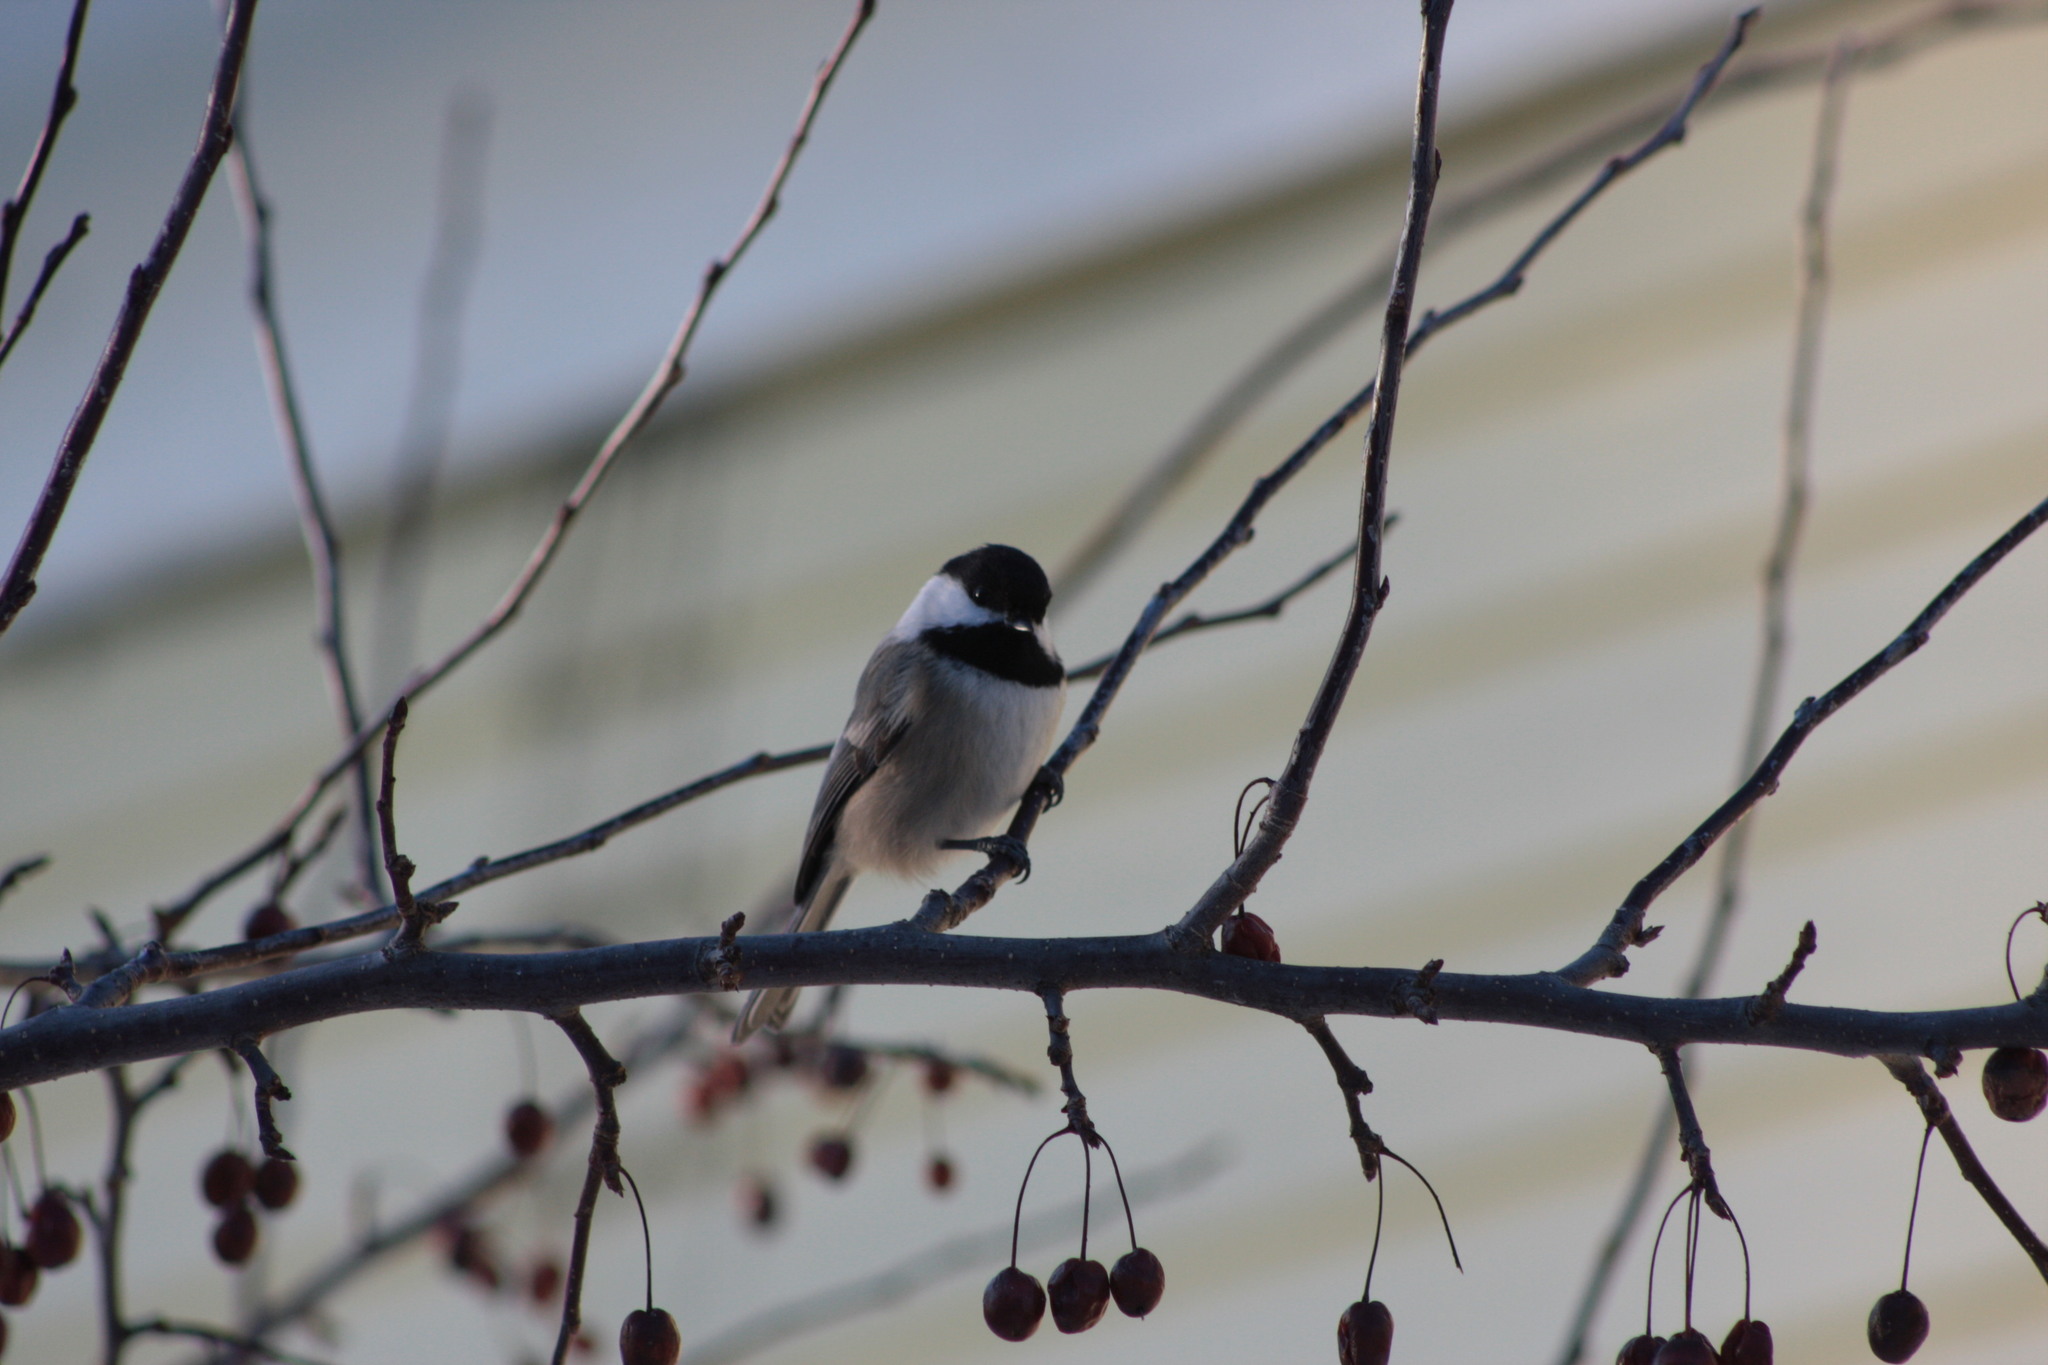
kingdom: Animalia
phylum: Chordata
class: Aves
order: Passeriformes
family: Paridae
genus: Poecile
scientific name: Poecile atricapillus
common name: Black-capped chickadee
